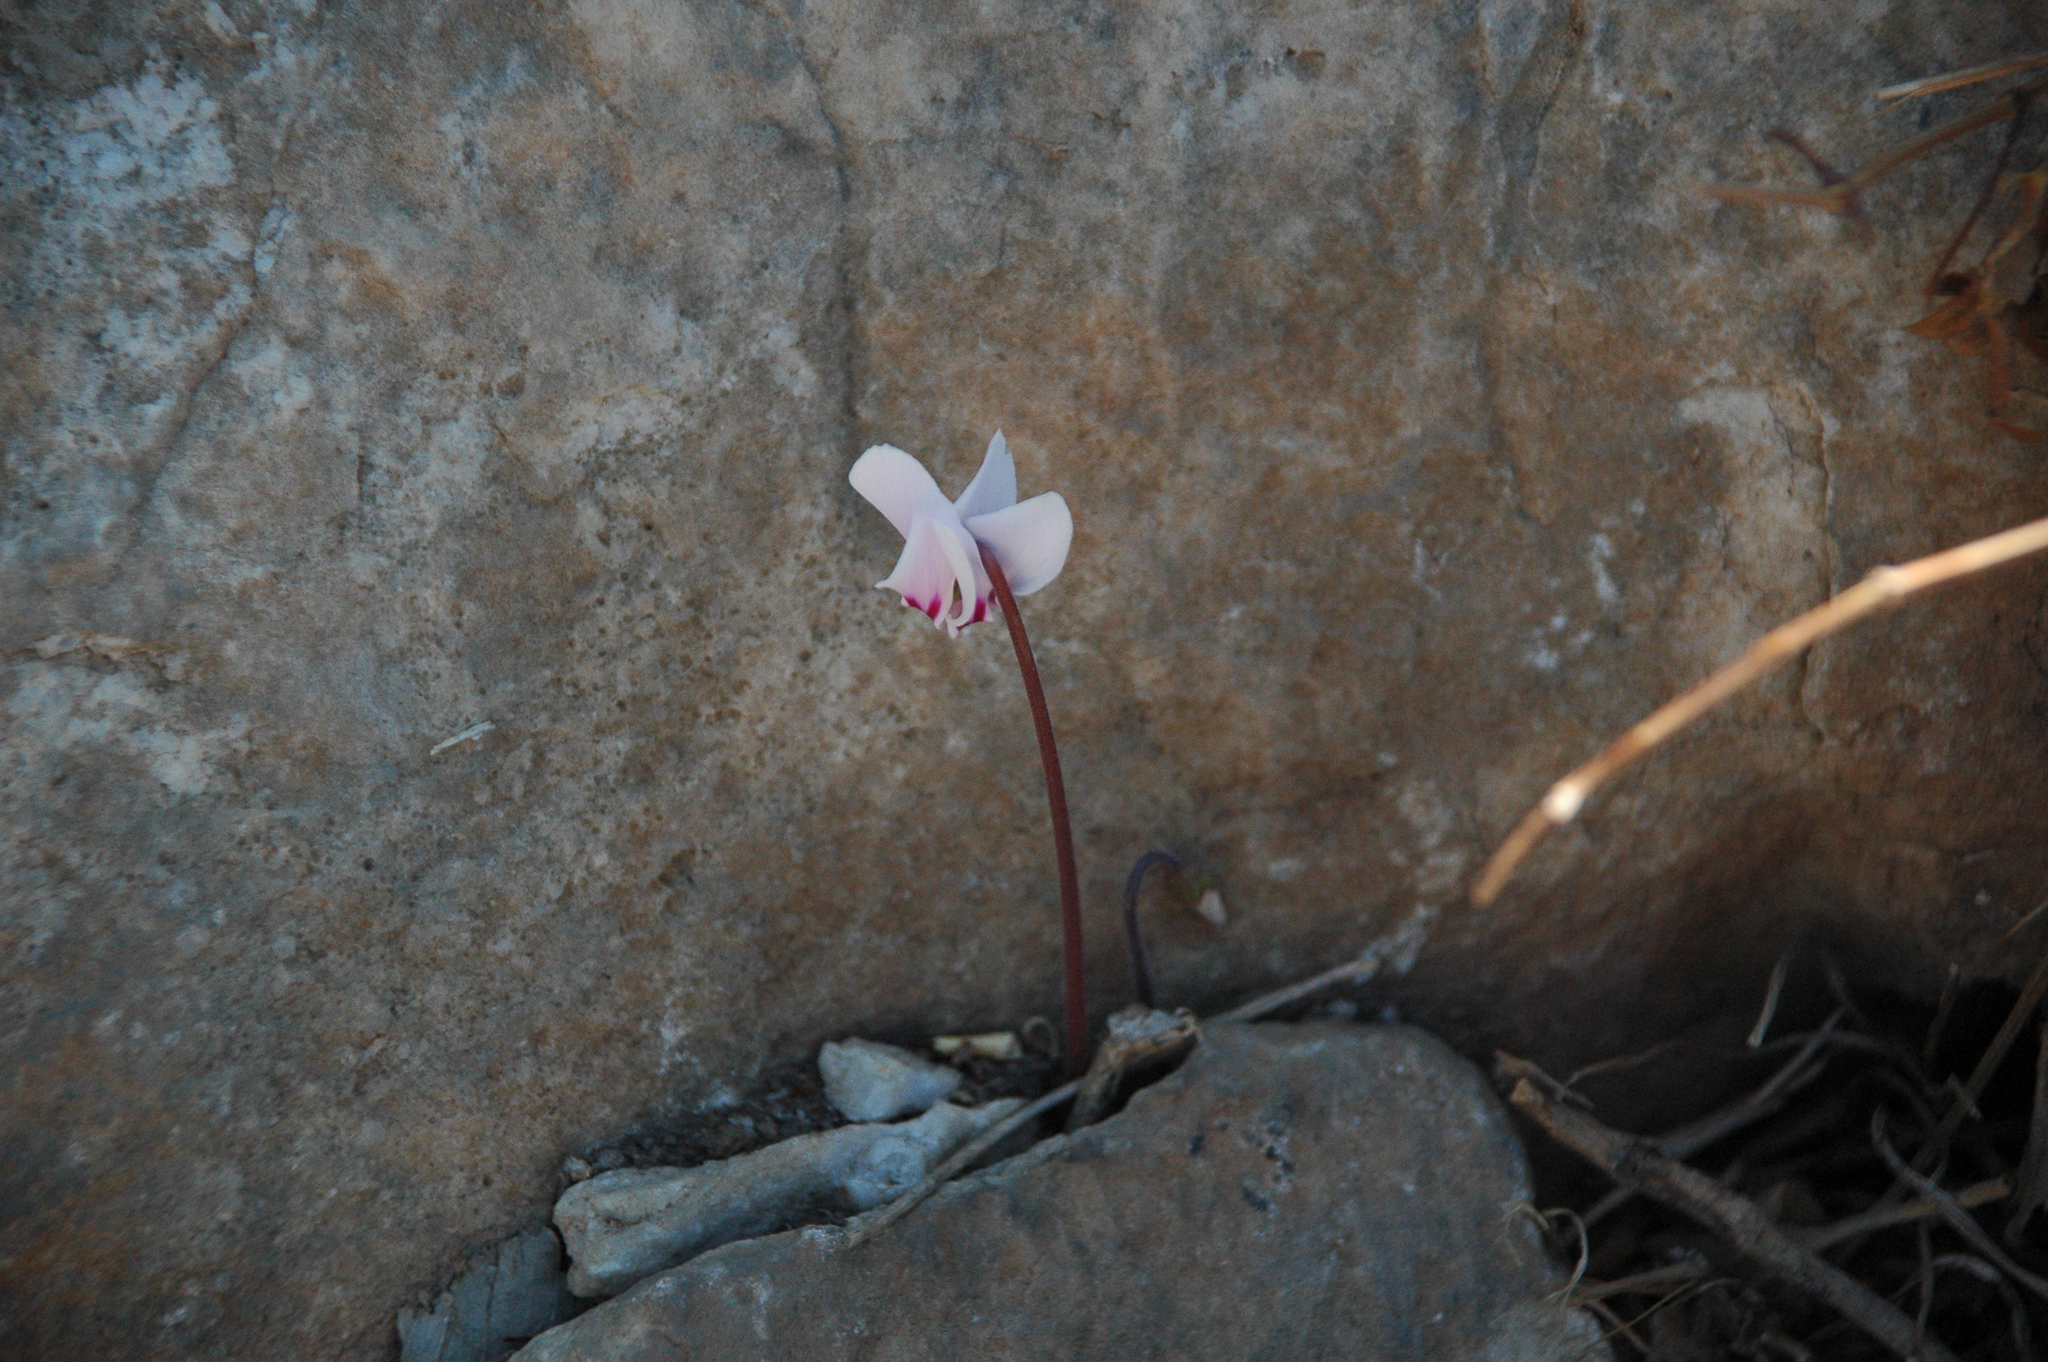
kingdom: Plantae
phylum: Tracheophyta
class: Magnoliopsida
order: Ericales
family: Primulaceae
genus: Cyclamen
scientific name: Cyclamen hederifolium
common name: Sowbread
